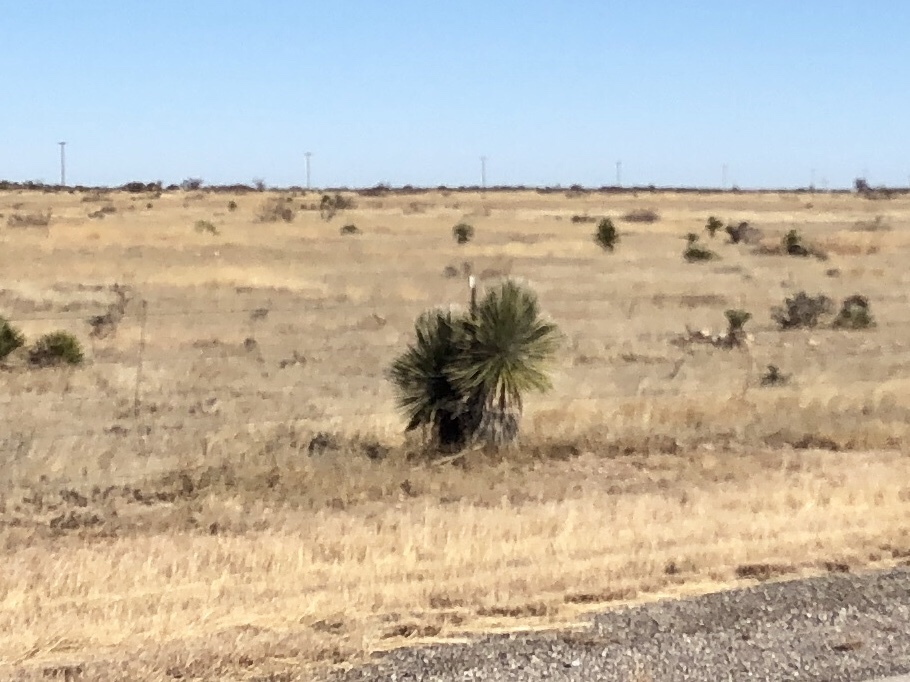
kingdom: Plantae
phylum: Tracheophyta
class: Liliopsida
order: Asparagales
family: Asparagaceae
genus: Yucca
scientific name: Yucca elata
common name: Palmella
